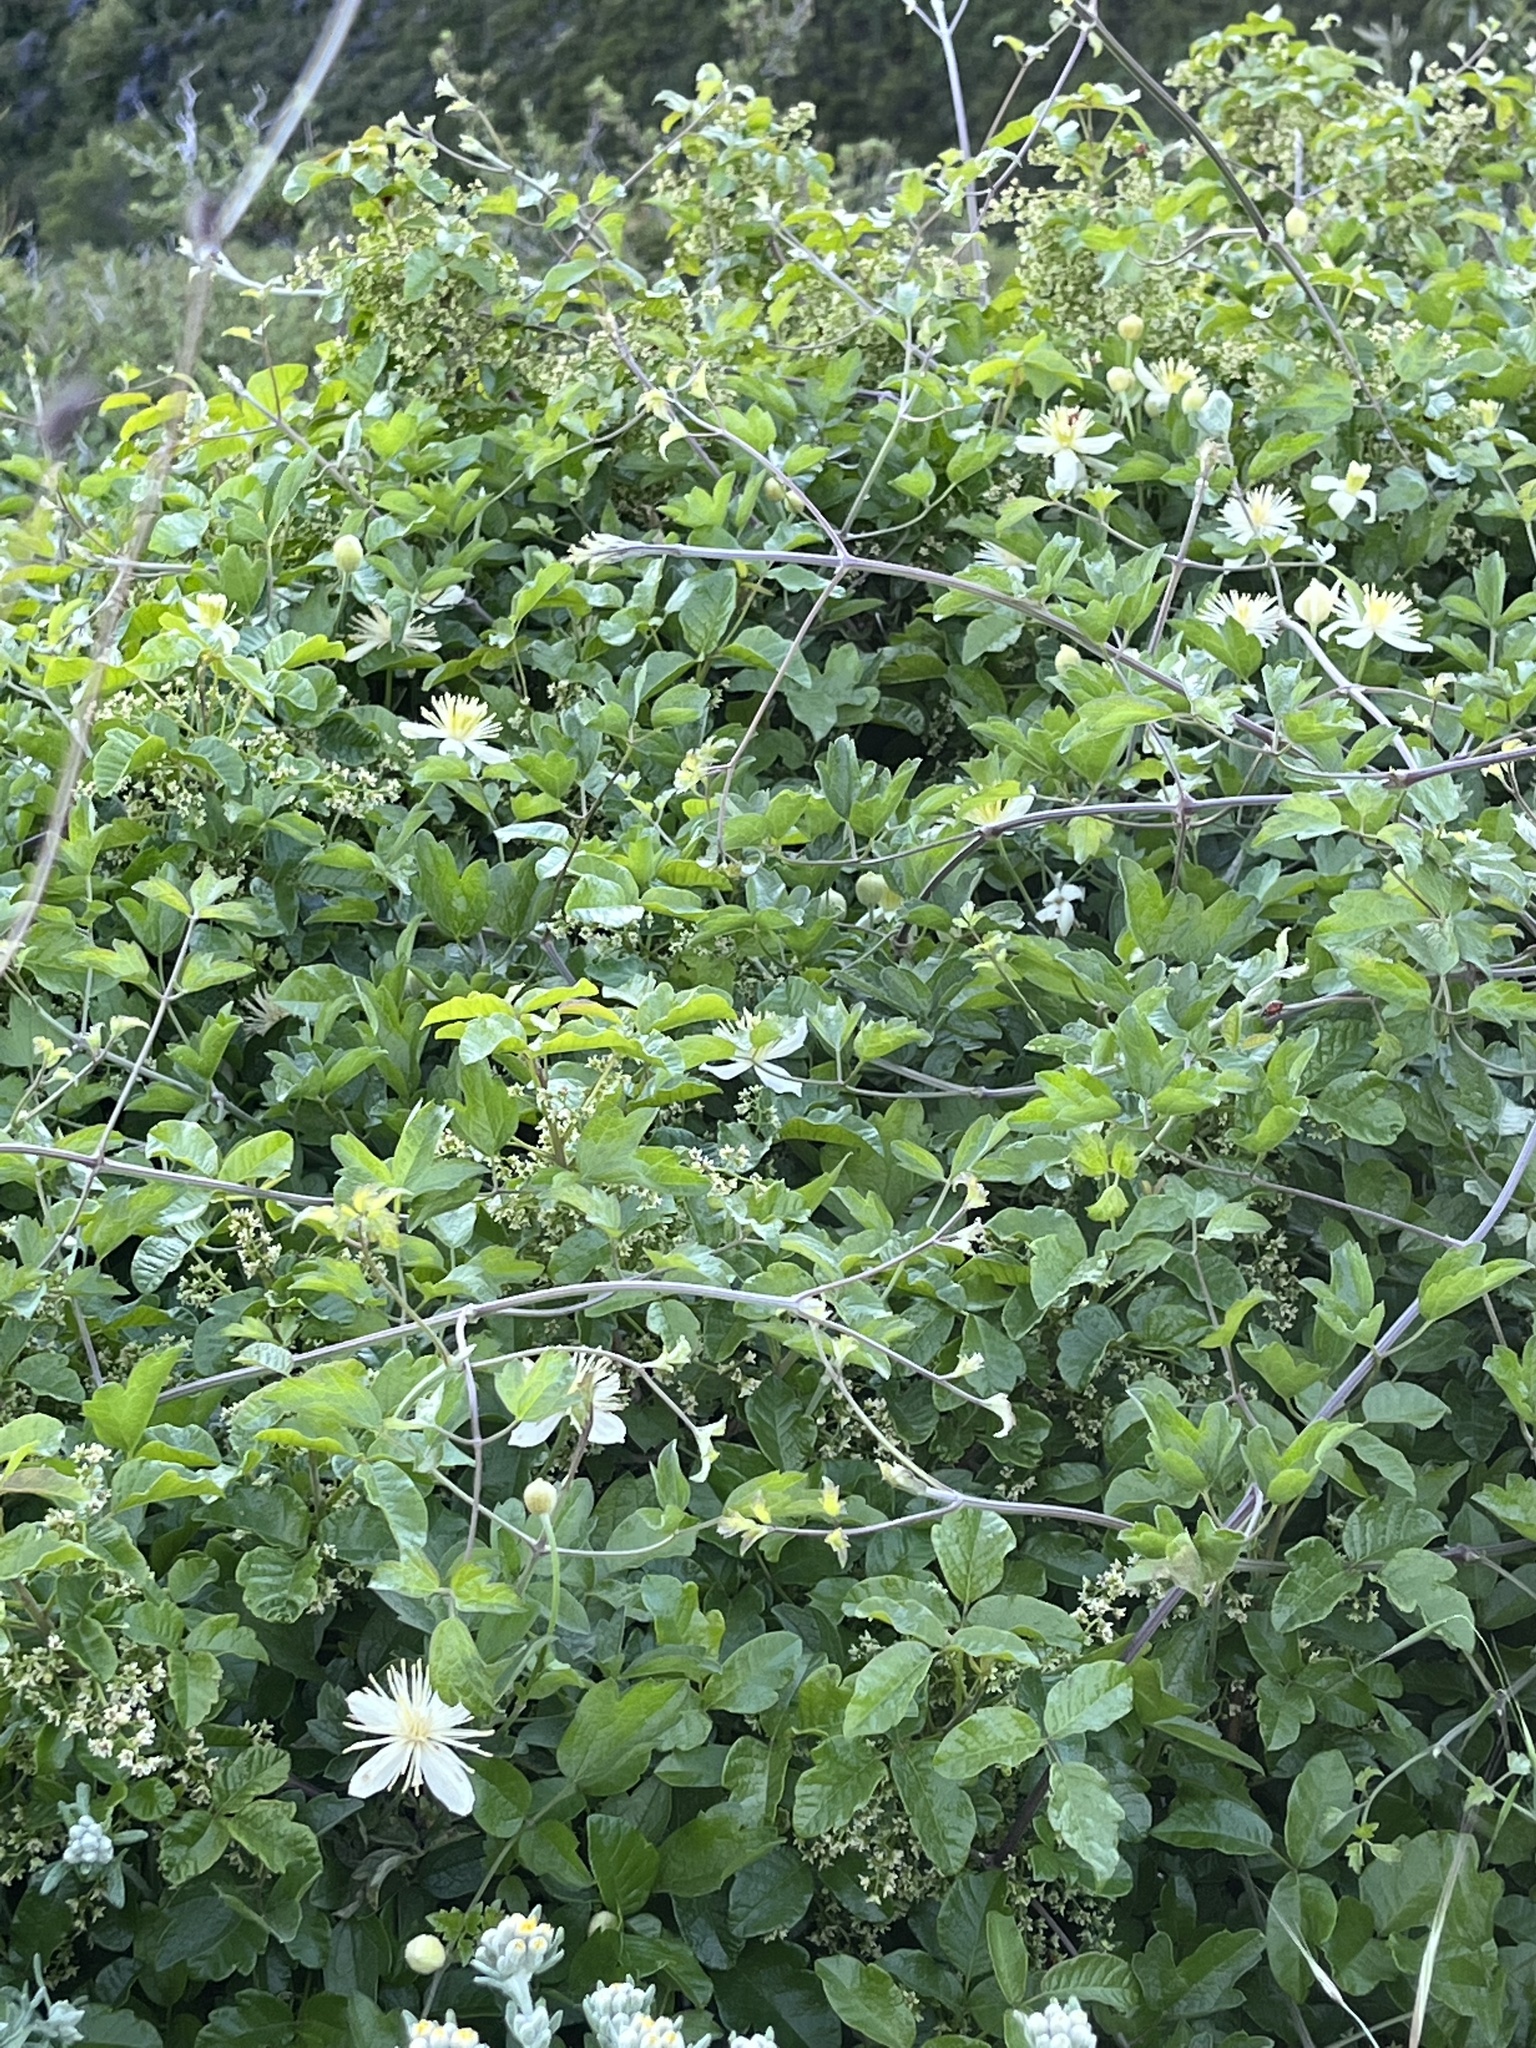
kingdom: Plantae
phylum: Tracheophyta
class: Magnoliopsida
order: Ranunculales
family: Ranunculaceae
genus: Clematis
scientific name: Clematis lasiantha
